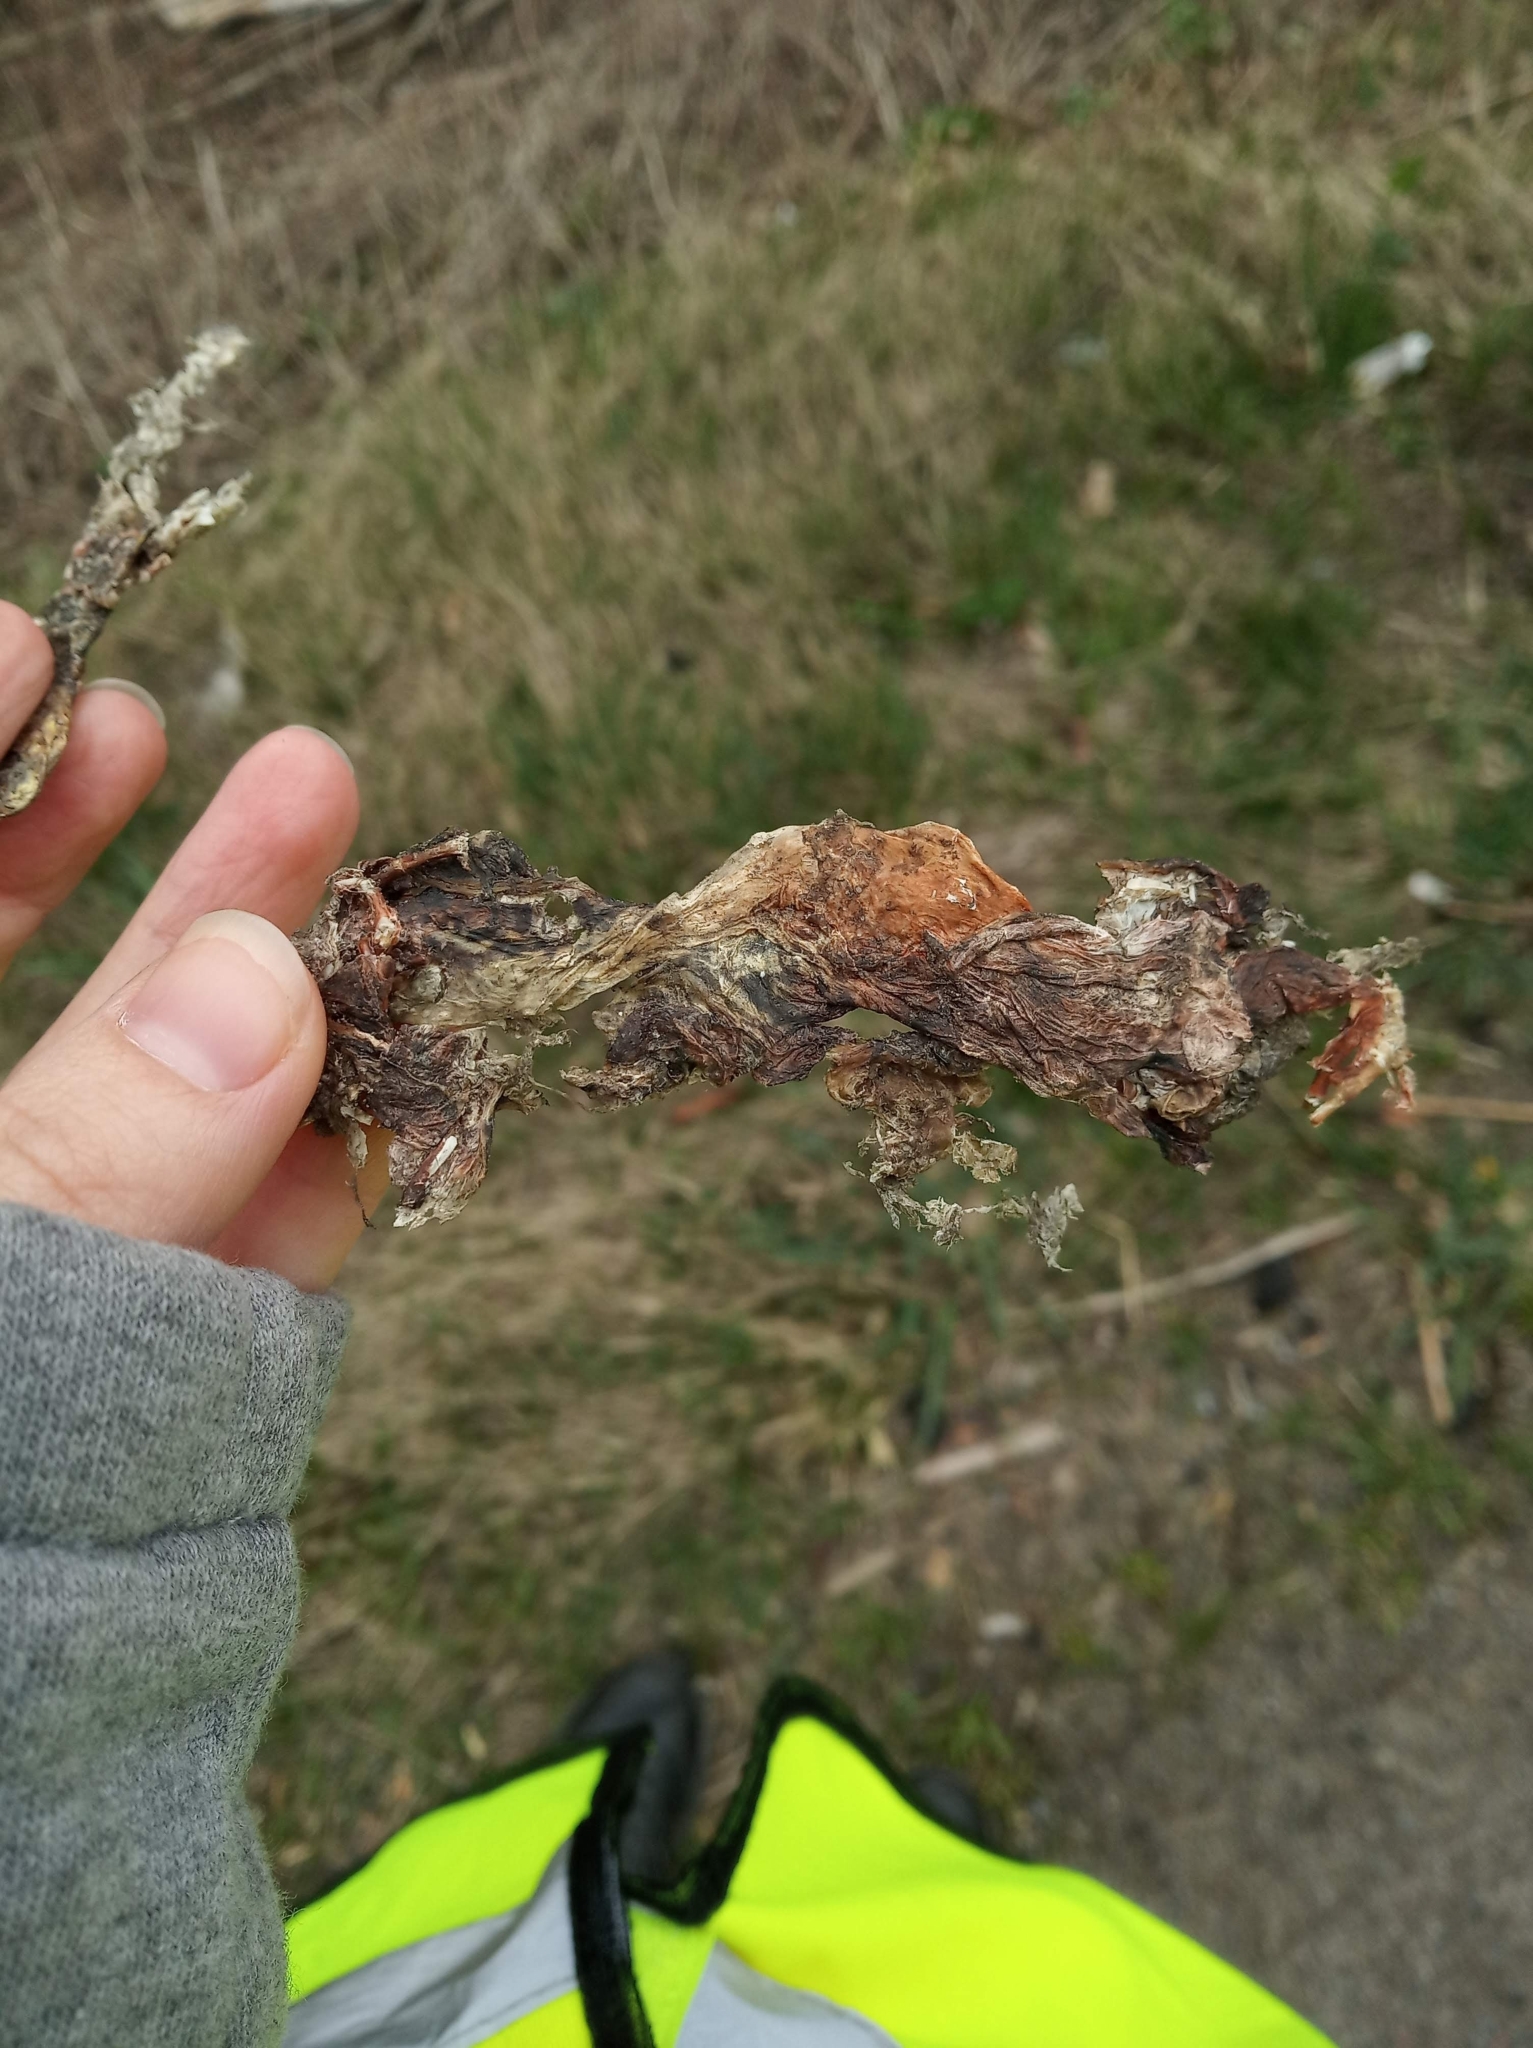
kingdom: Animalia
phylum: Chordata
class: Amphibia
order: Anura
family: Bufonidae
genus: Bufo
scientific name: Bufo bufo
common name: Common toad
